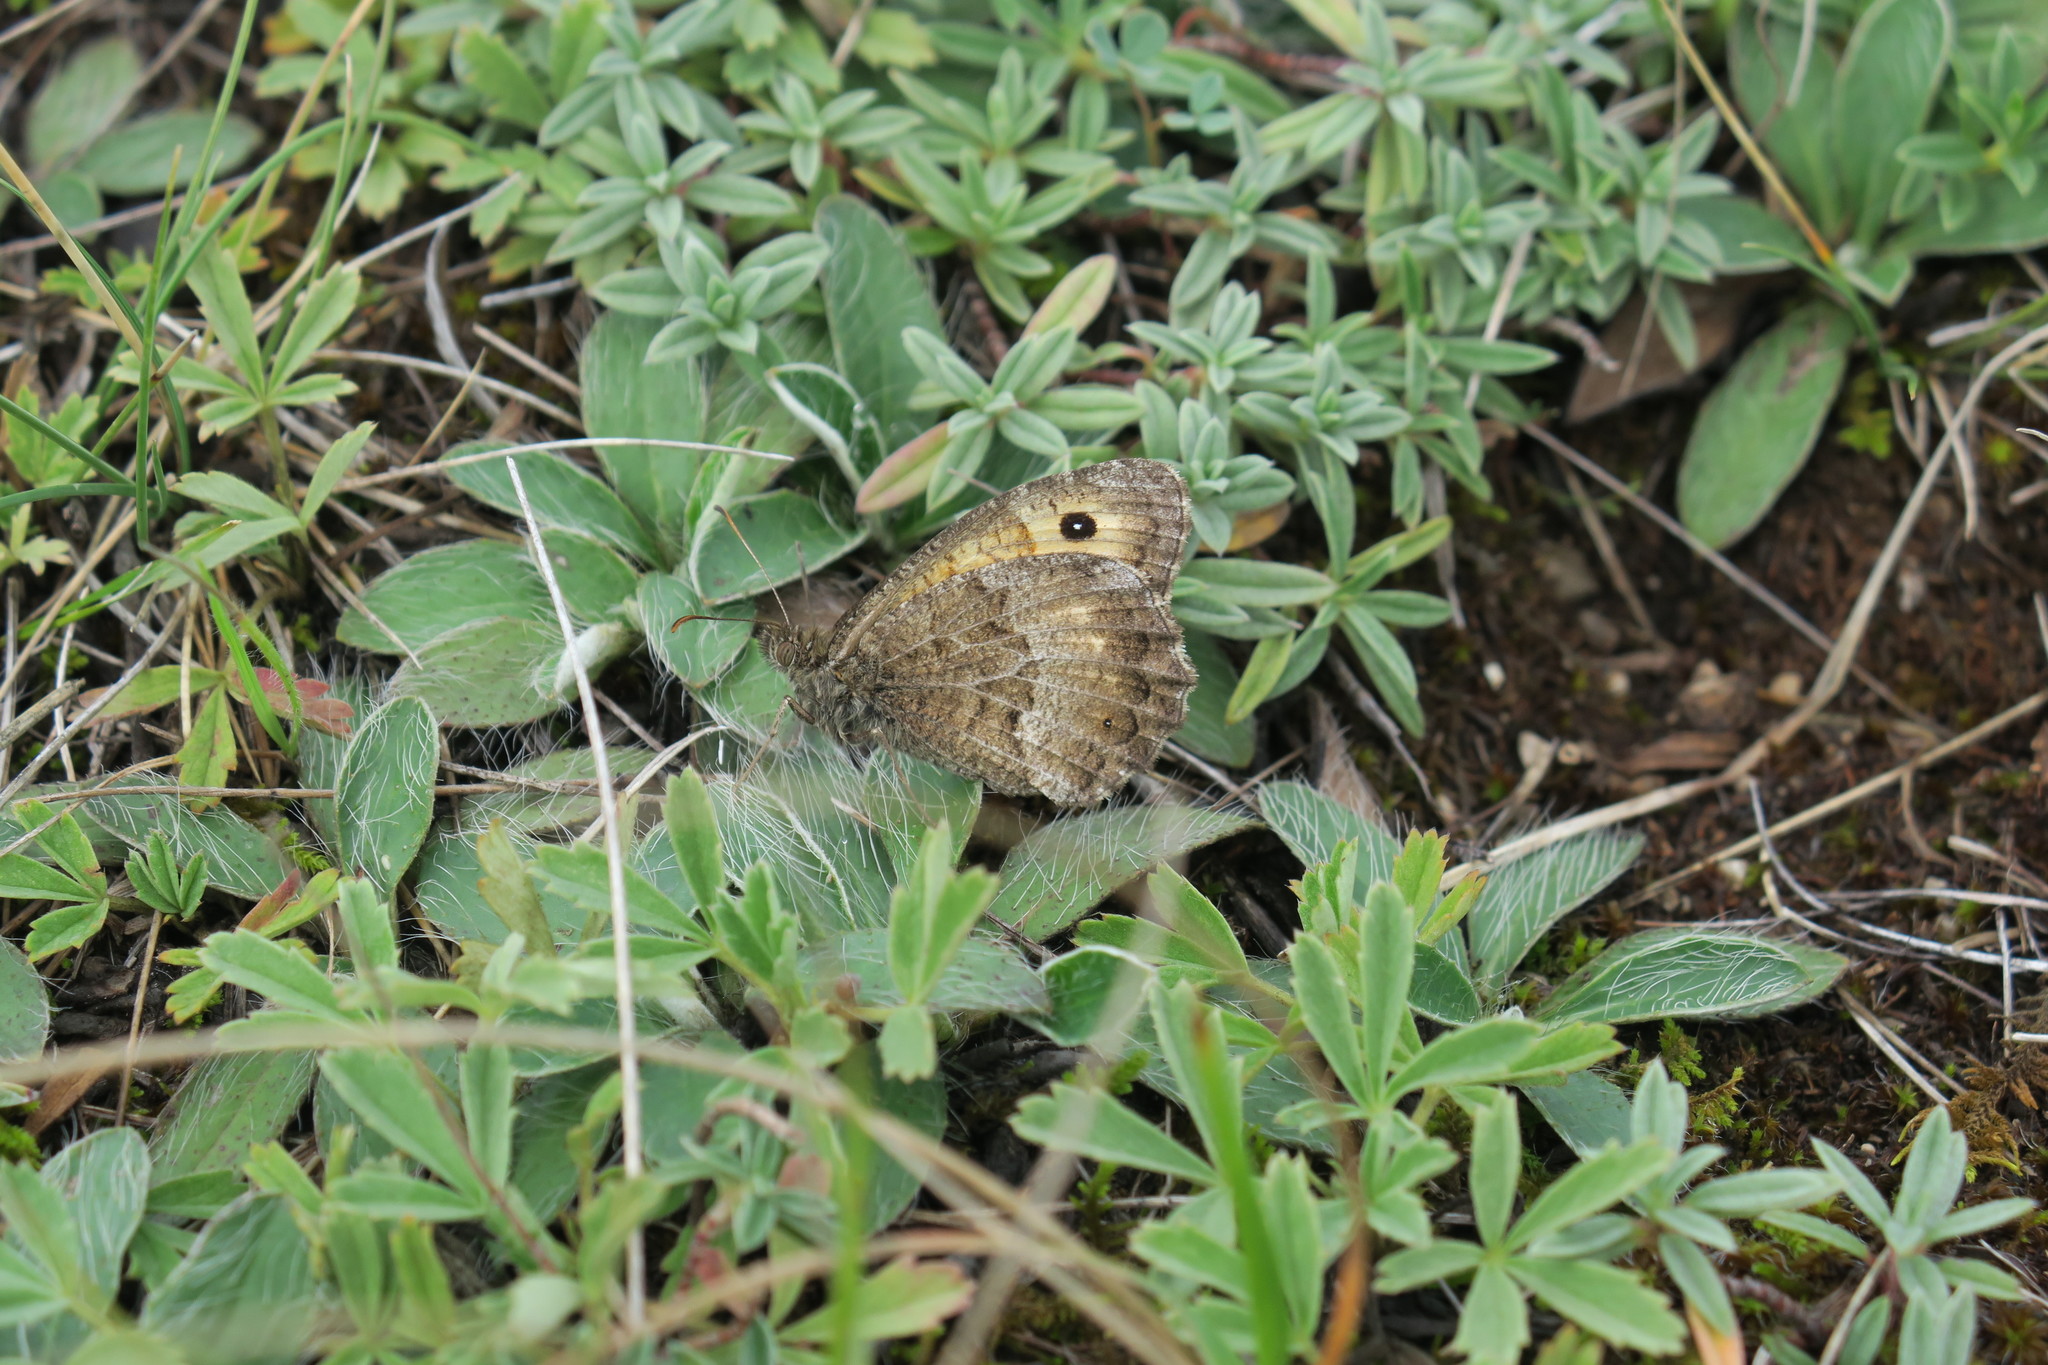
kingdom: Animalia
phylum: Arthropoda
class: Insecta
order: Lepidoptera
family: Nymphalidae
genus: Arethusana
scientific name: Arethusana arethusa
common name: False grayling
